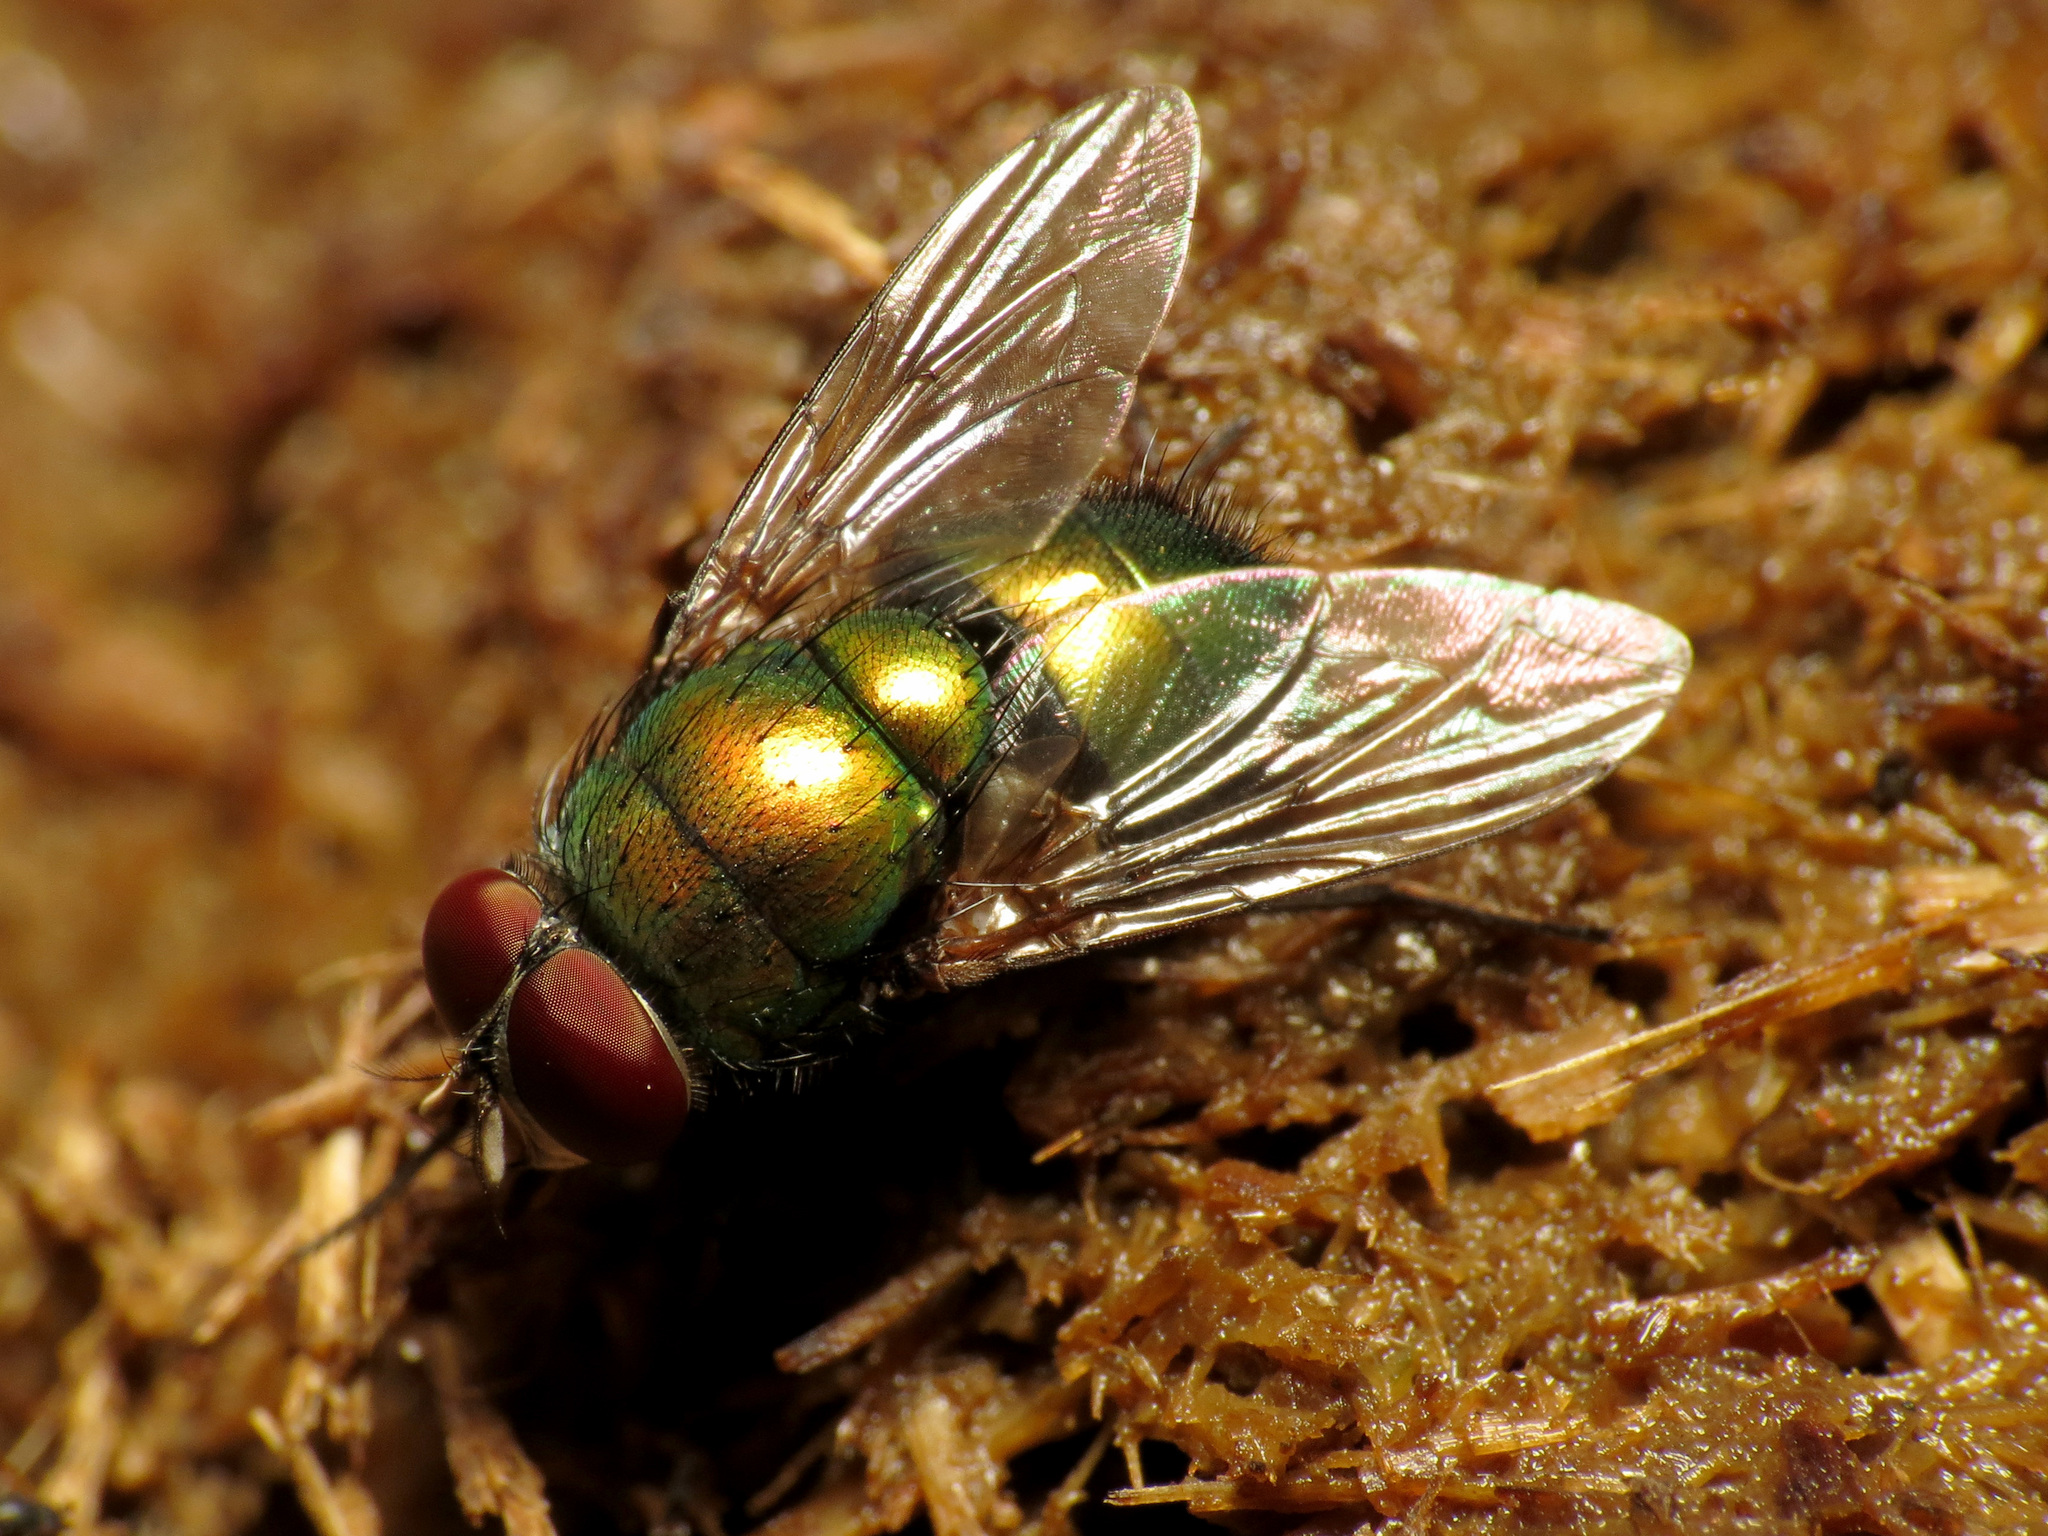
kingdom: Animalia
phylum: Arthropoda
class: Insecta
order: Diptera
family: Calliphoridae
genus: Lucilia
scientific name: Lucilia caeruleiviridis
